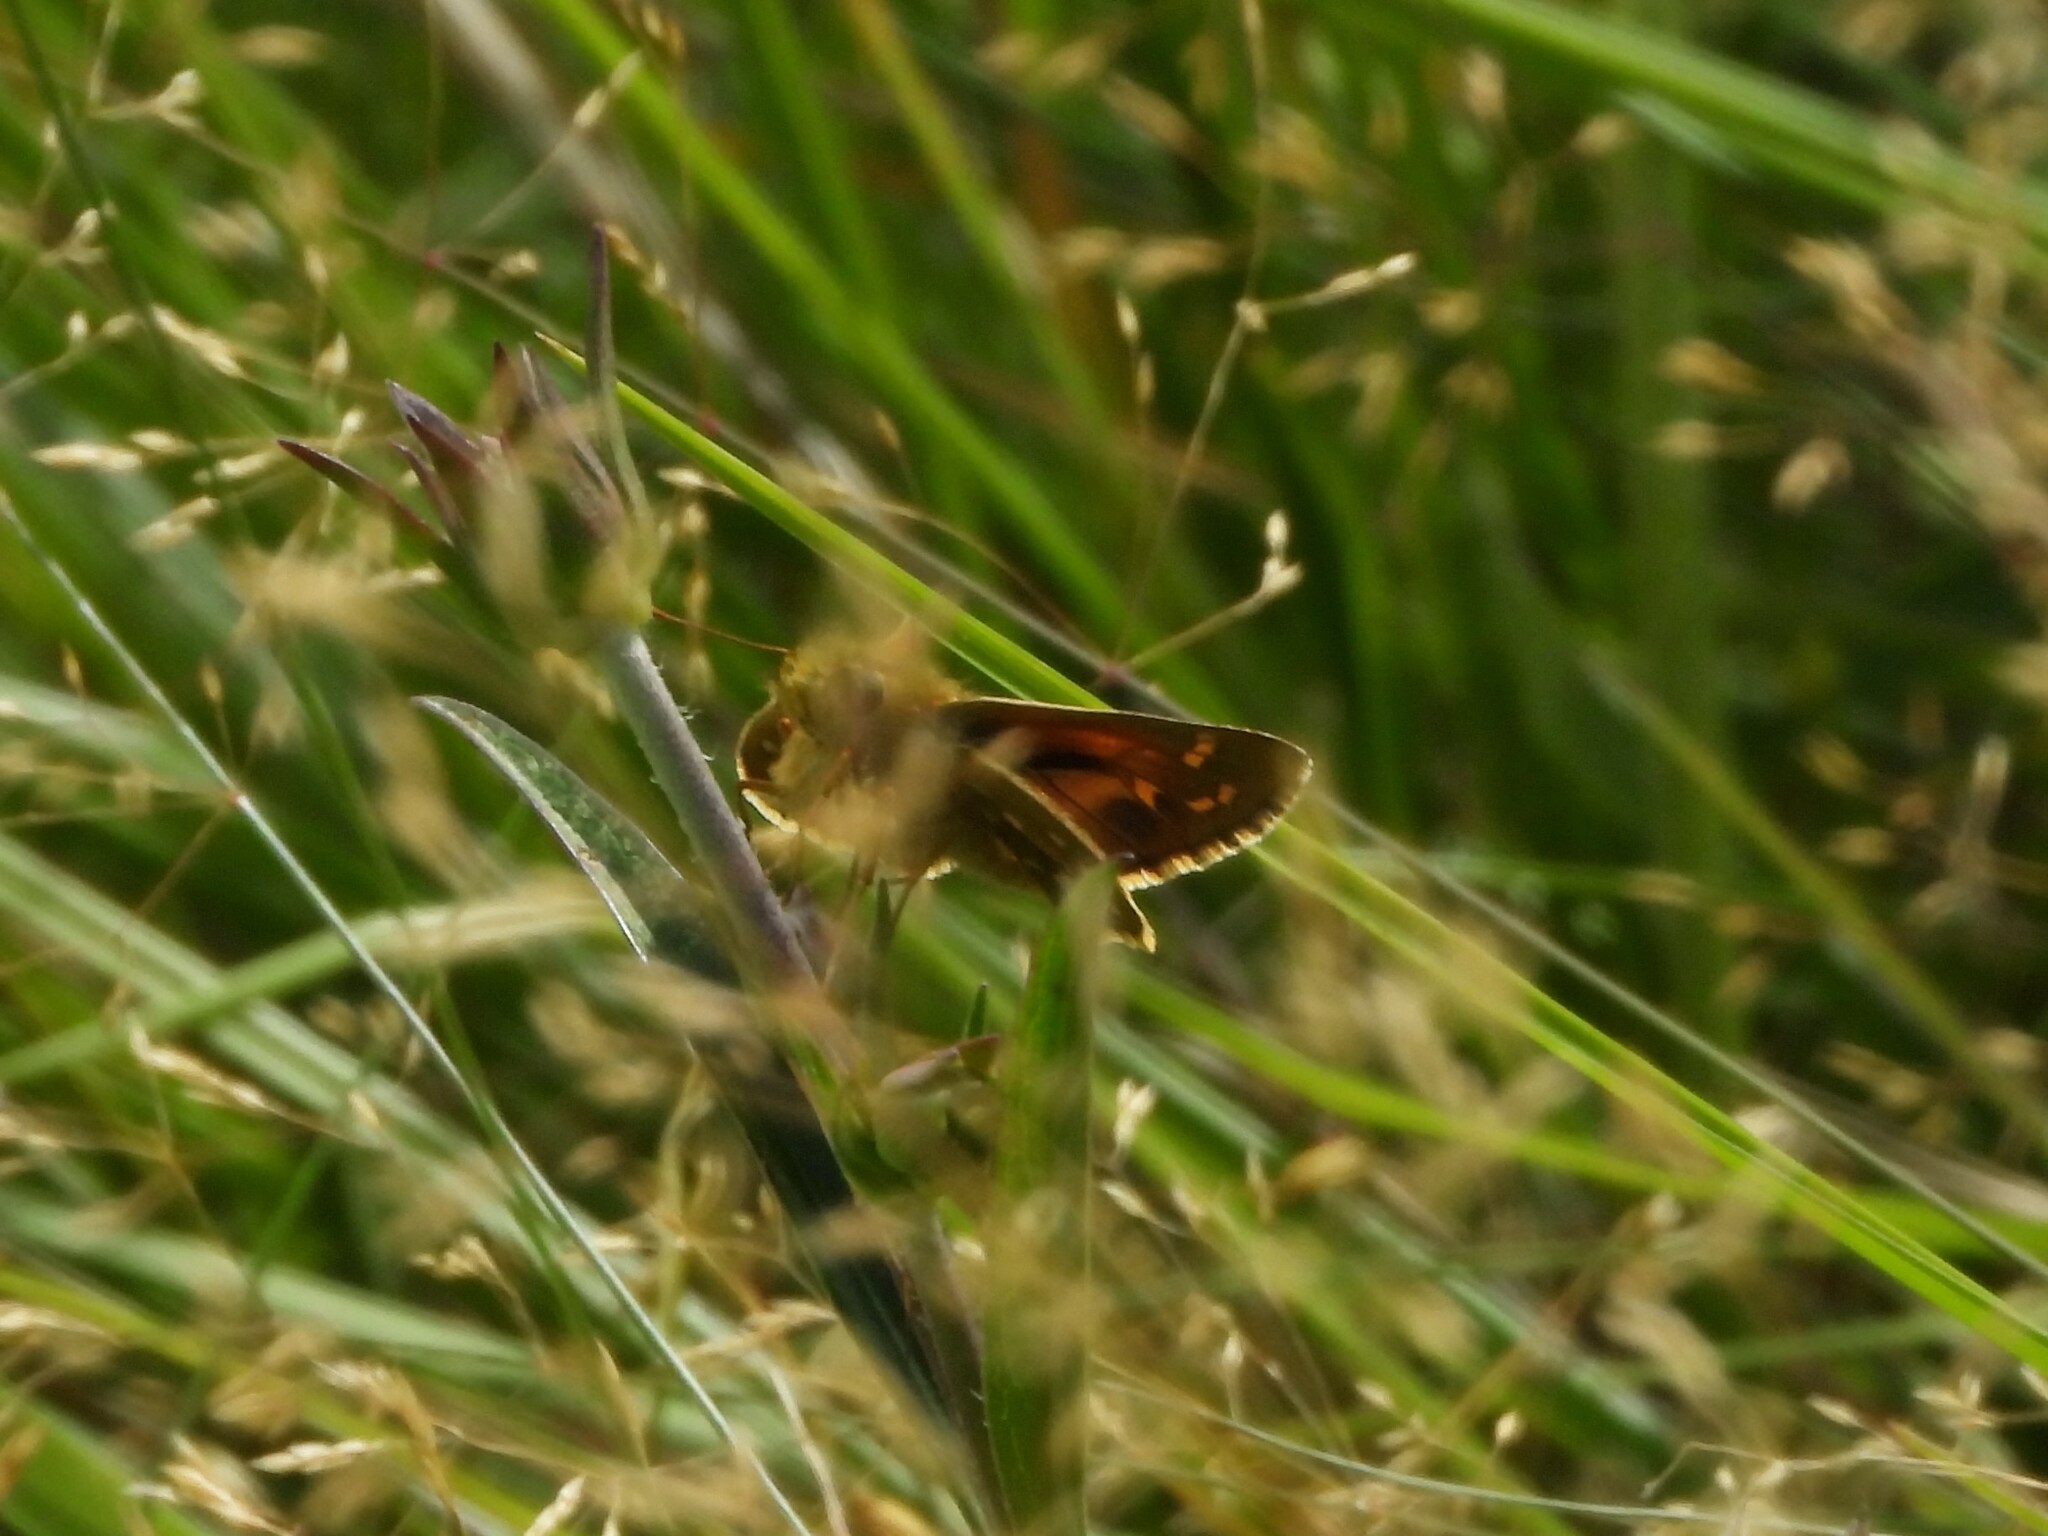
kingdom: Animalia
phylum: Arthropoda
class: Insecta
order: Lepidoptera
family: Hesperiidae
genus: Hesperia
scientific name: Hesperia comma
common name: Common branded skipper
